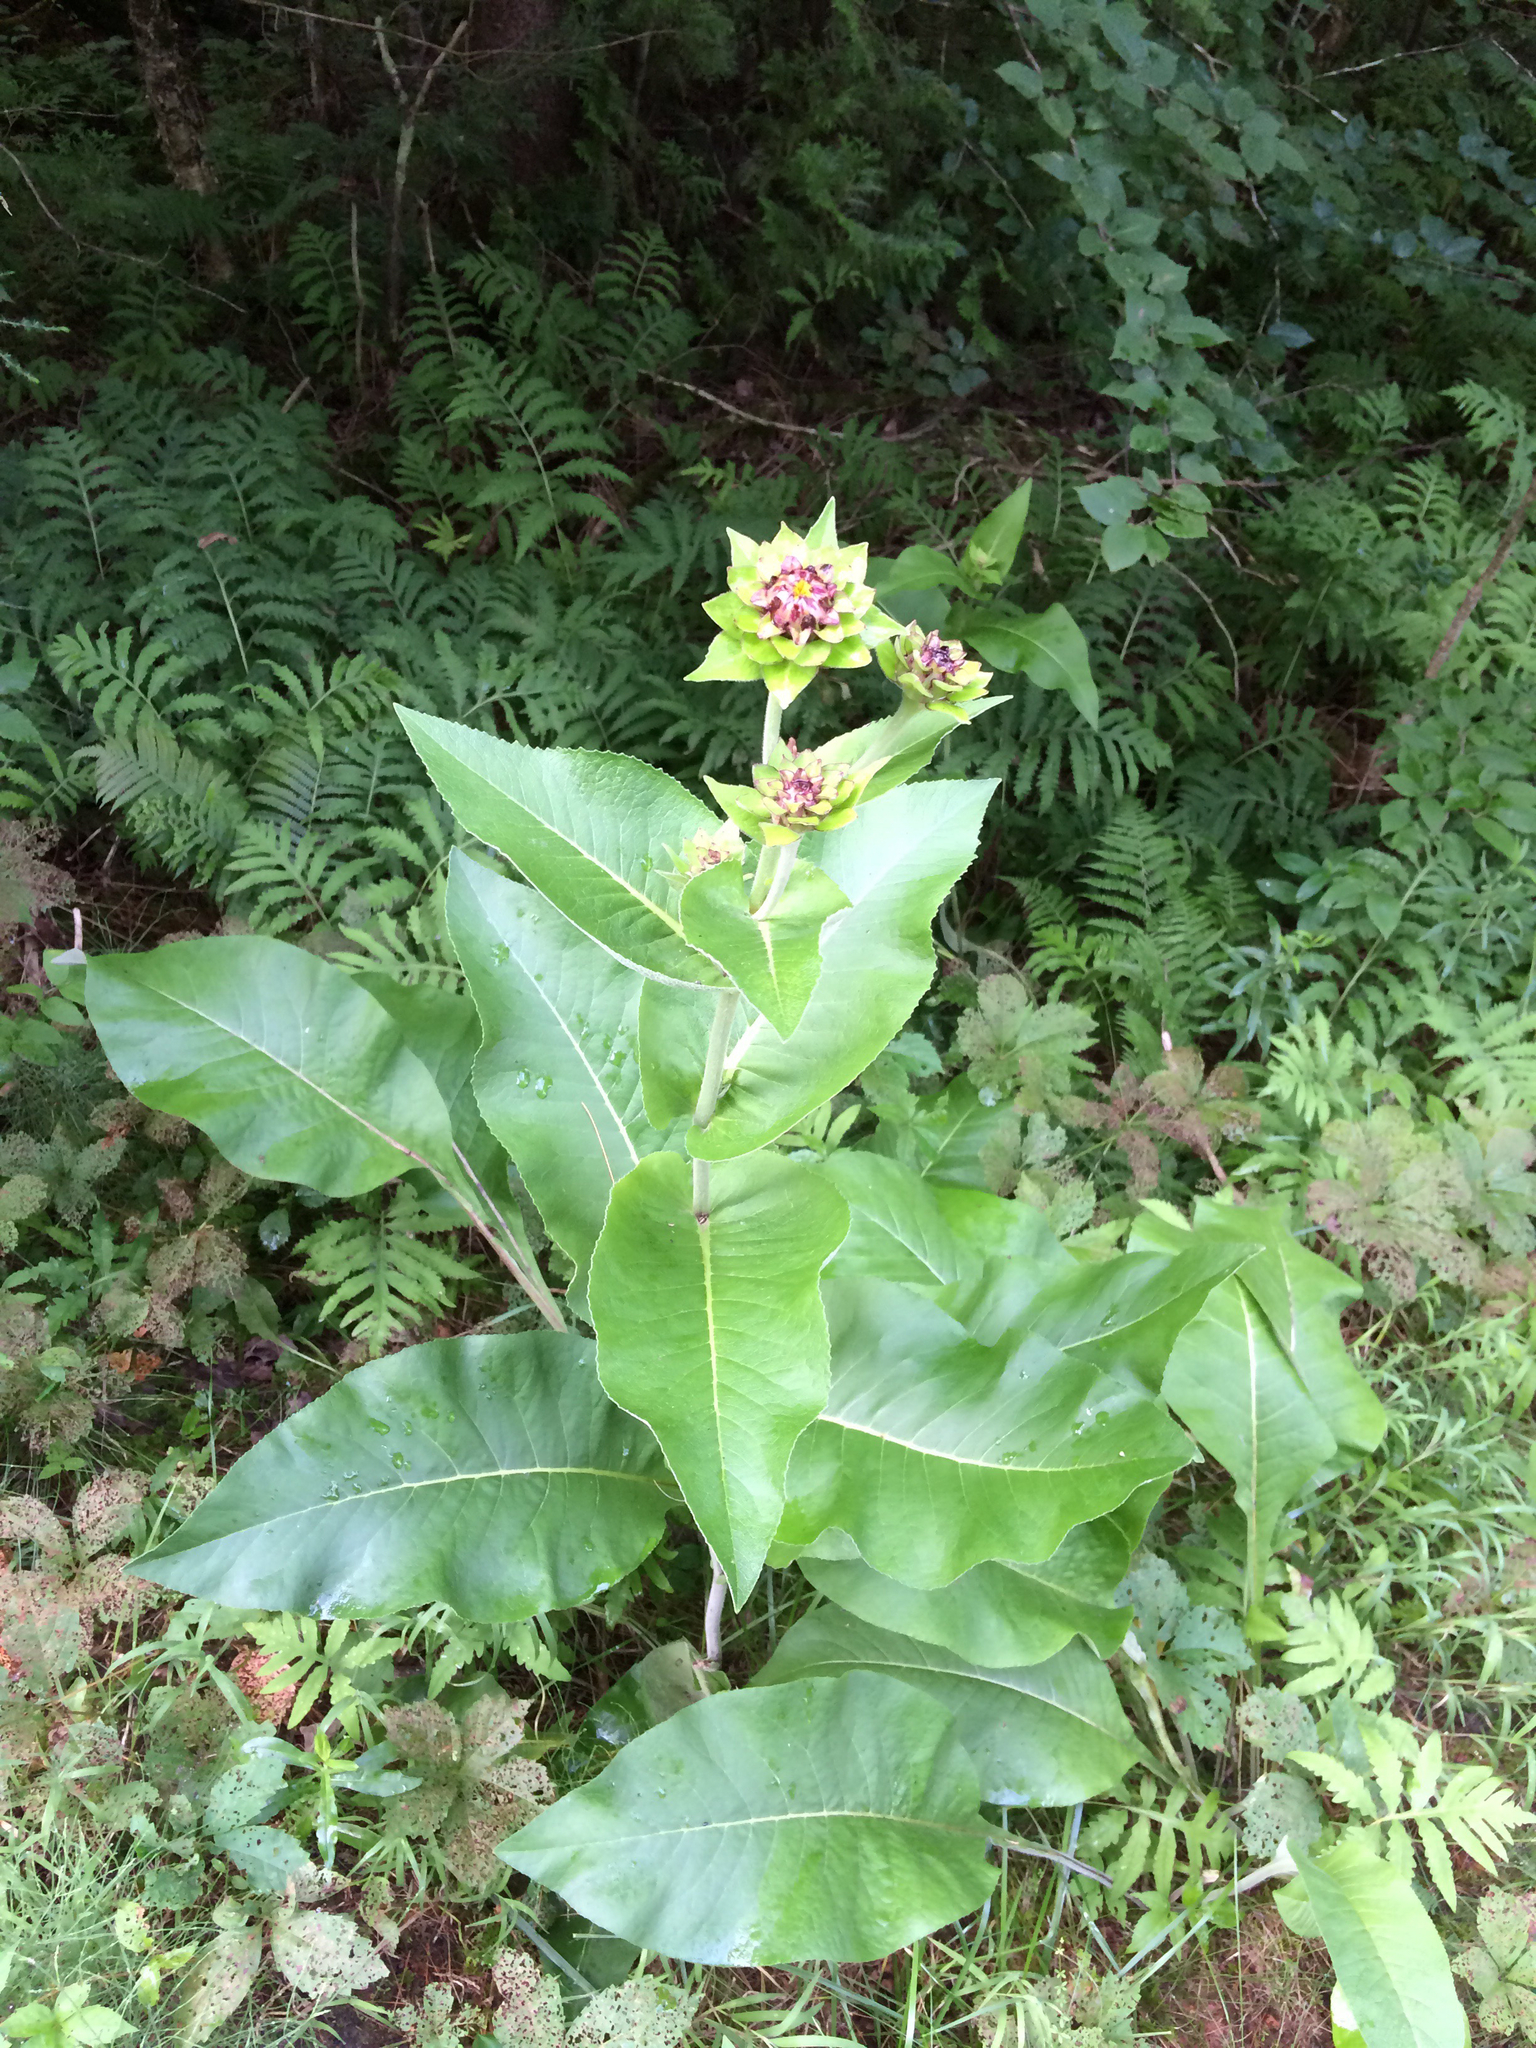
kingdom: Plantae
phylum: Tracheophyta
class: Magnoliopsida
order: Asterales
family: Asteraceae
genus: Inula
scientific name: Inula helenium
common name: Elecampane
